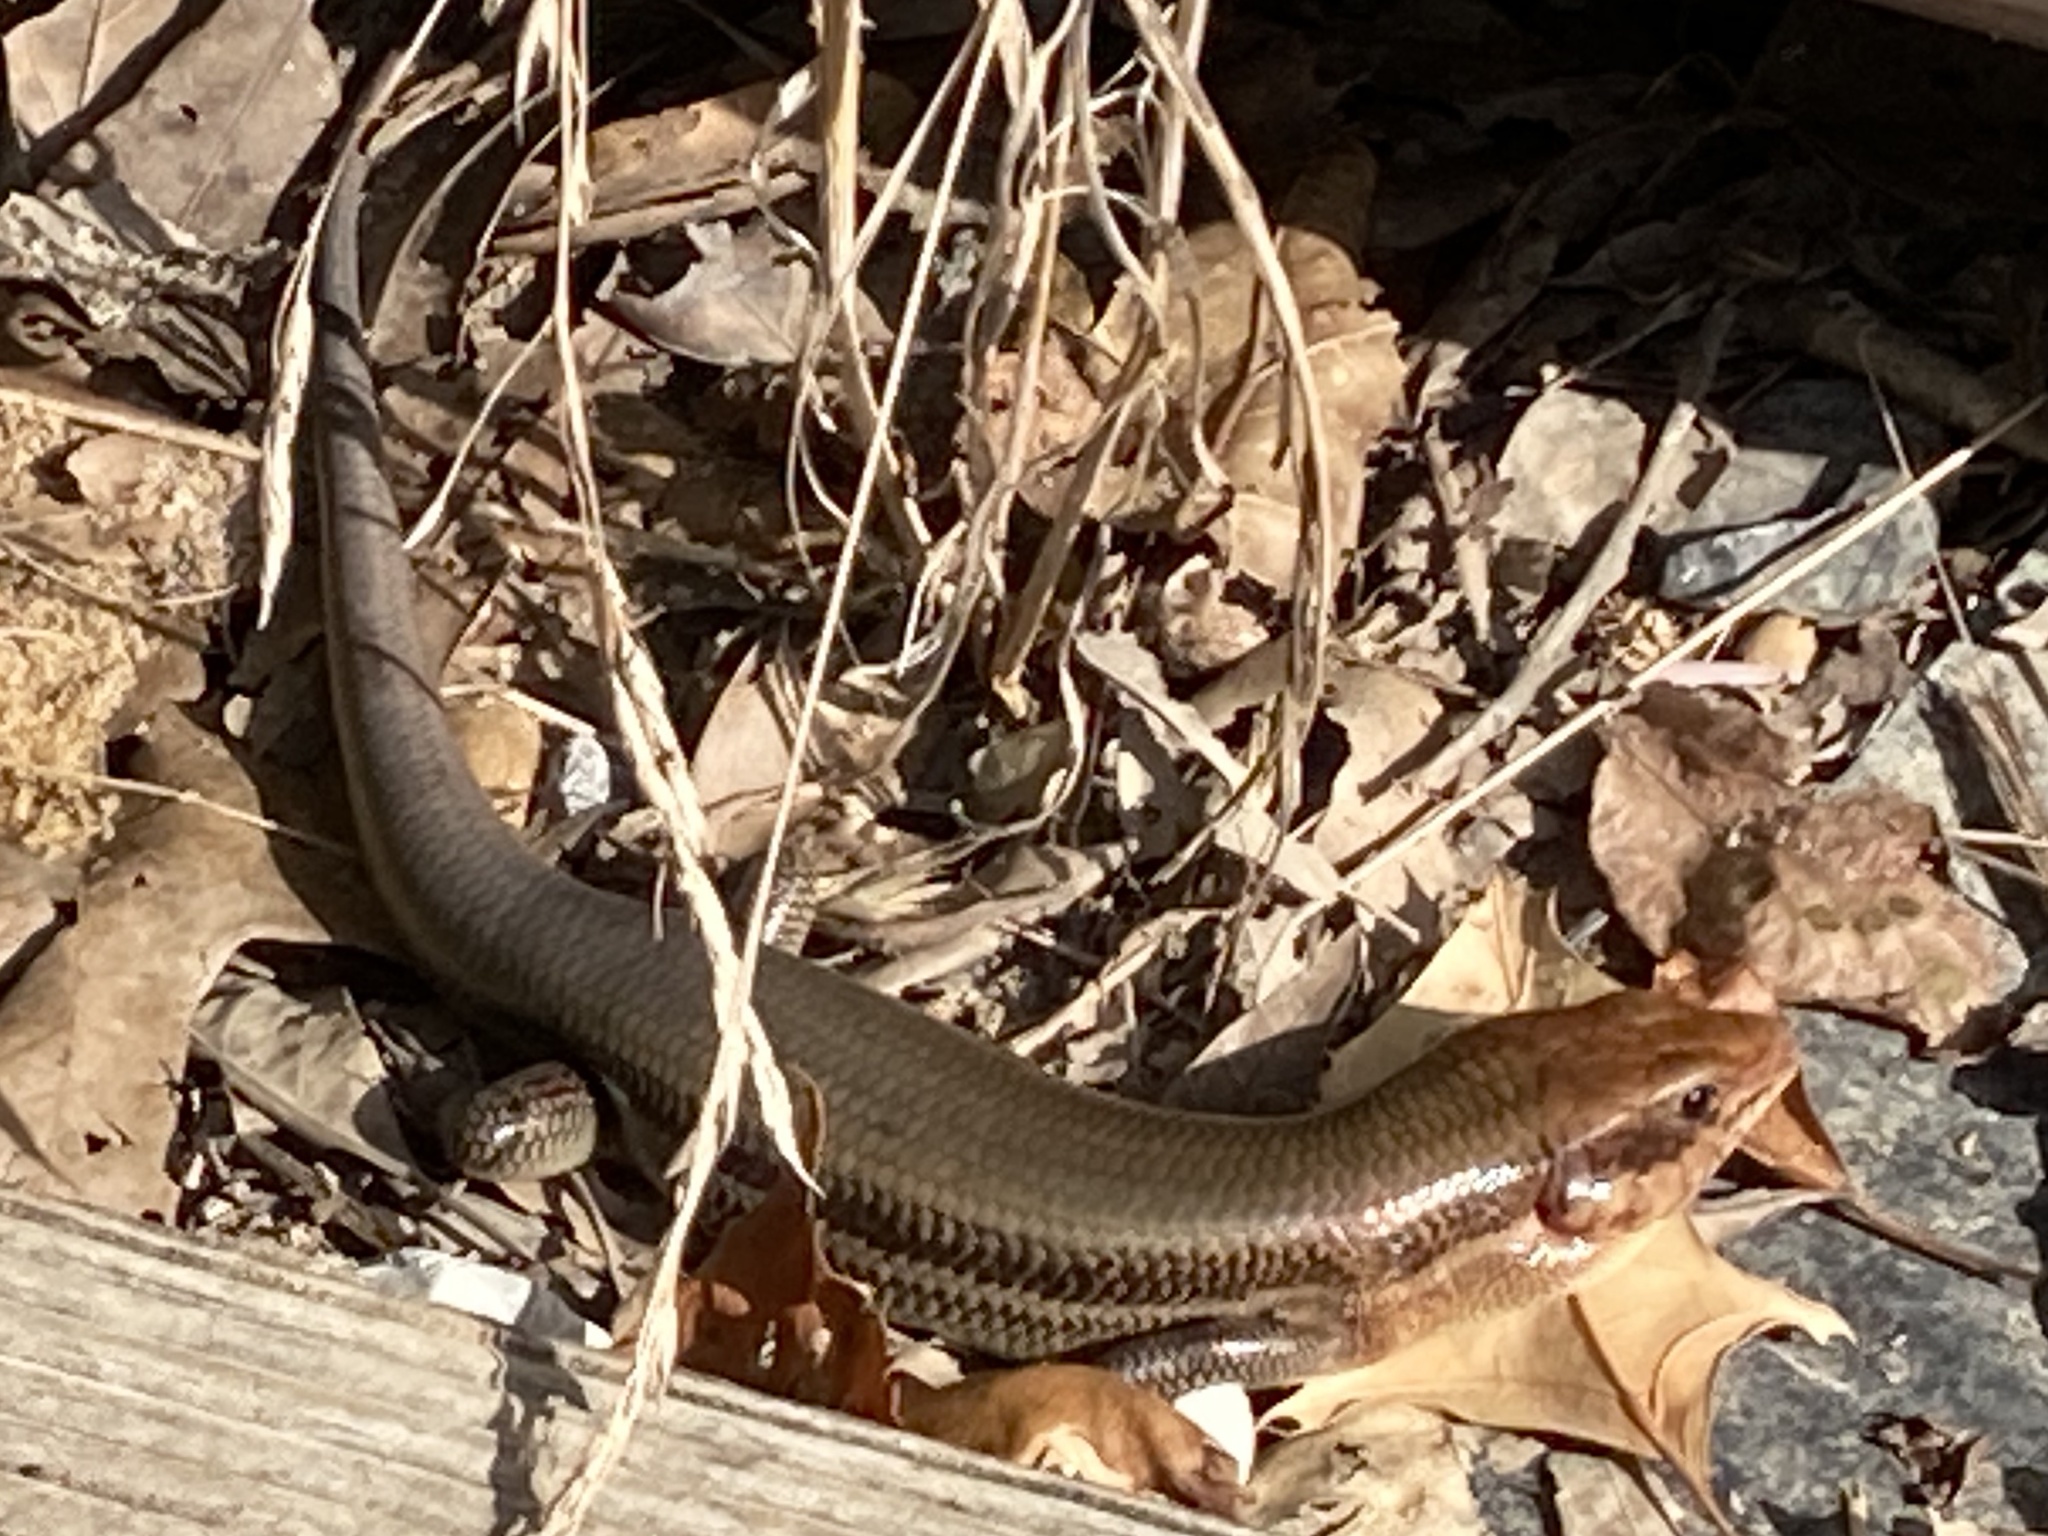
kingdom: Animalia
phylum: Chordata
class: Squamata
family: Scincidae
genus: Plestiodon
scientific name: Plestiodon laticeps
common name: Broadhead skink
